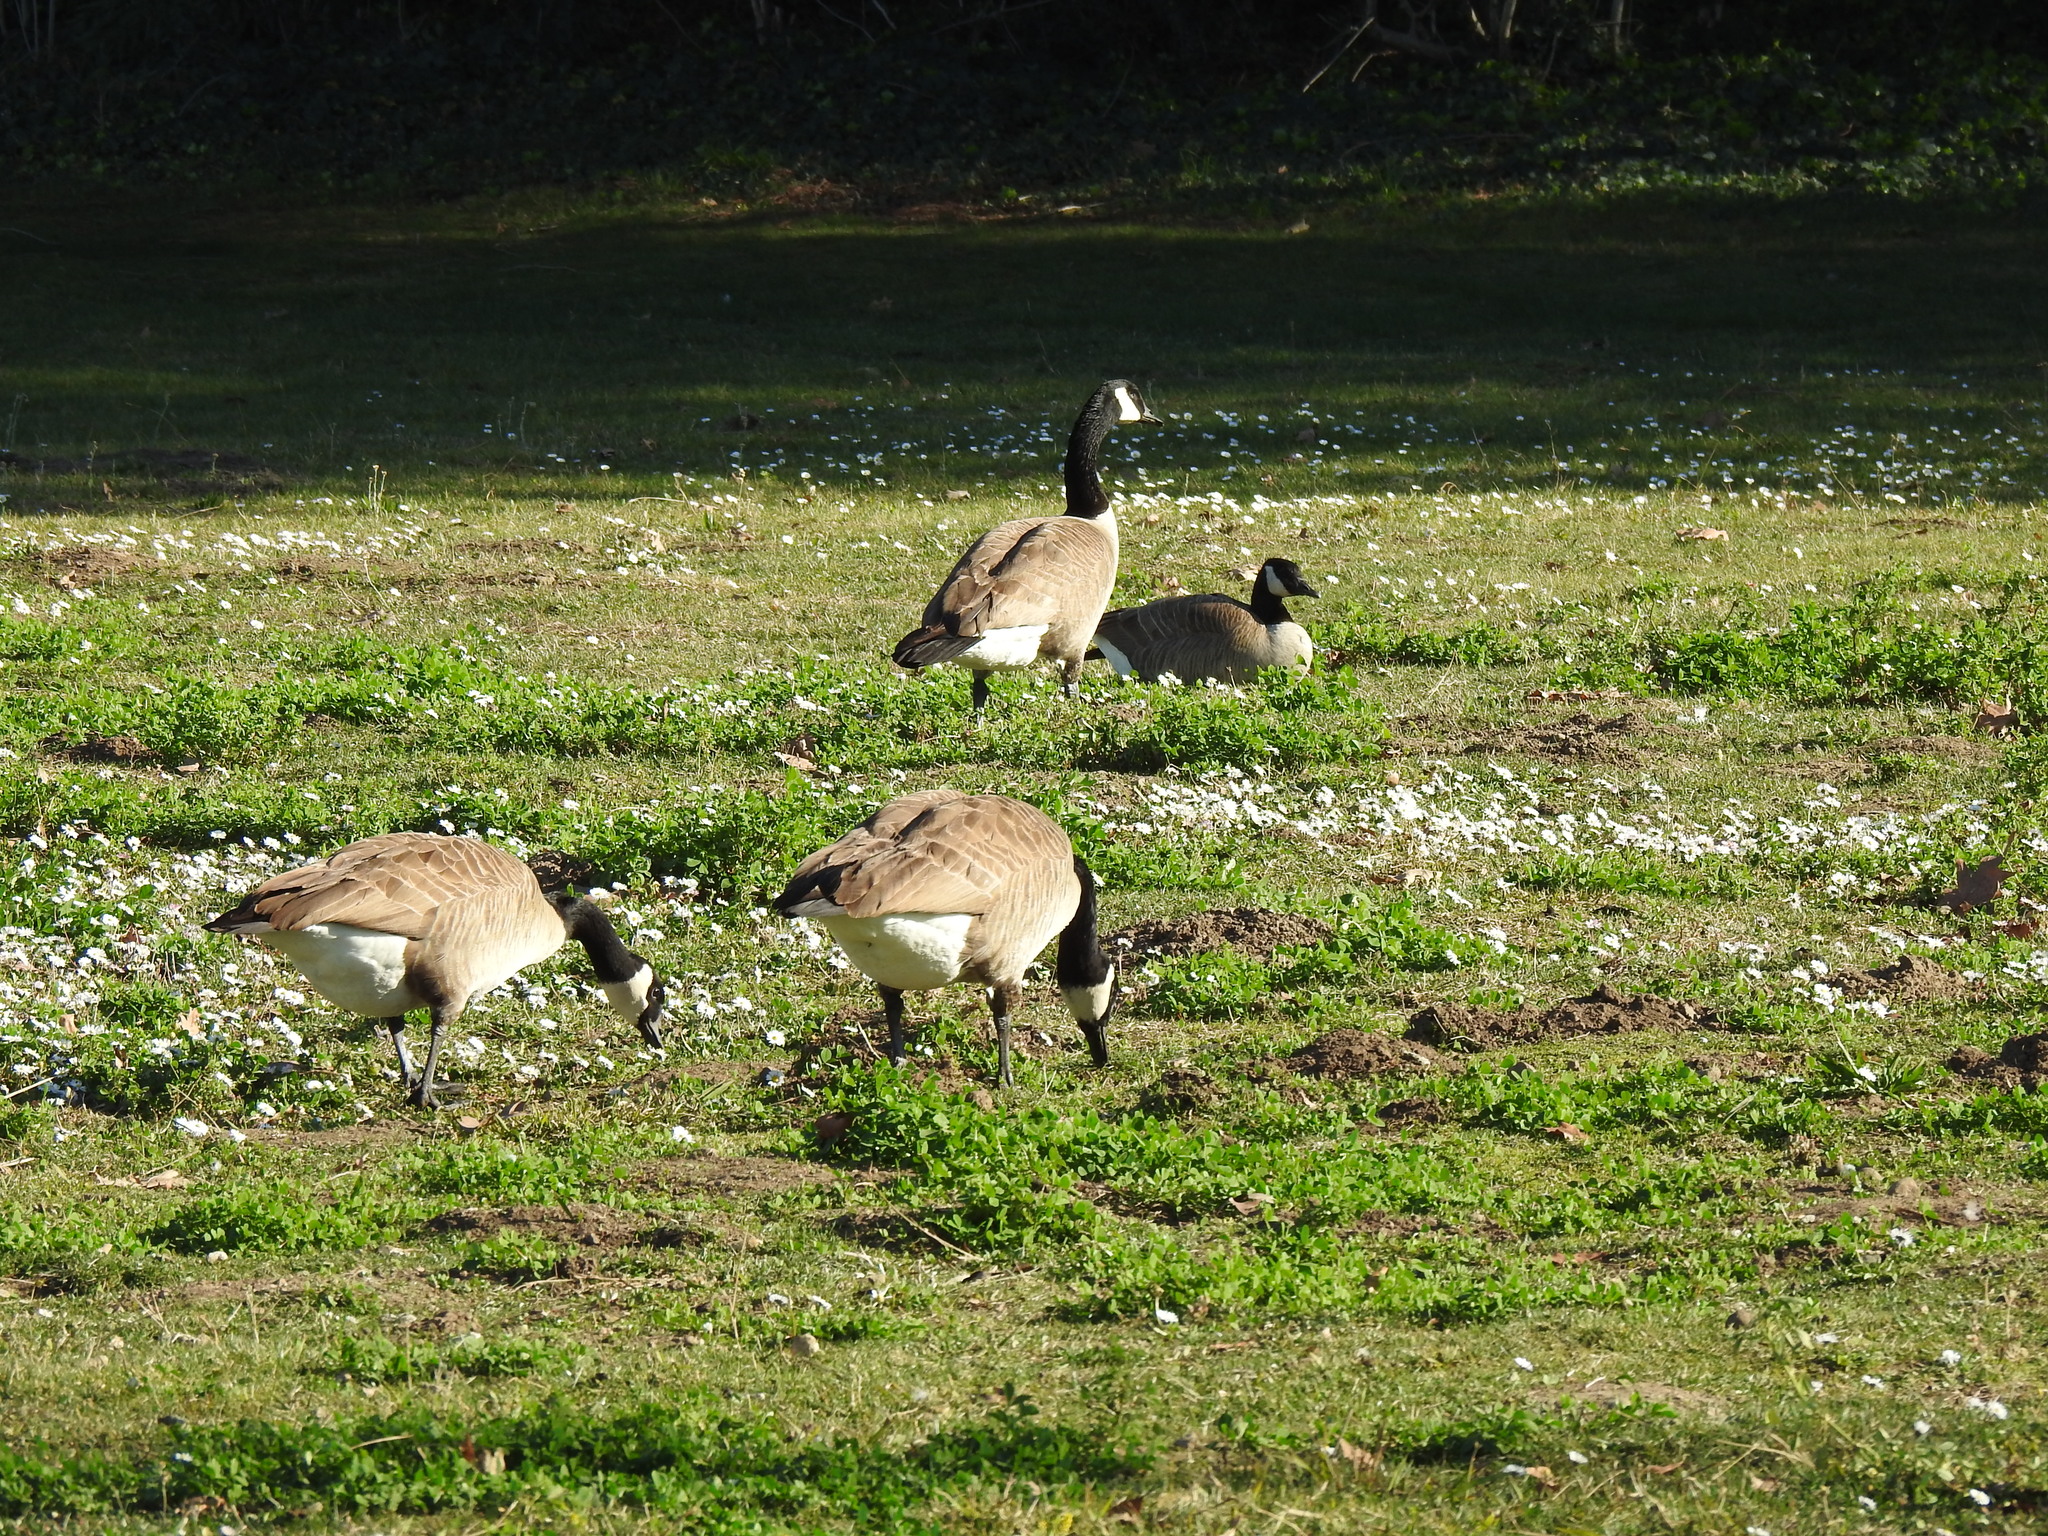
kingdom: Animalia
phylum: Chordata
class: Aves
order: Anseriformes
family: Anatidae
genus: Branta
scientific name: Branta canadensis
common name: Canada goose
